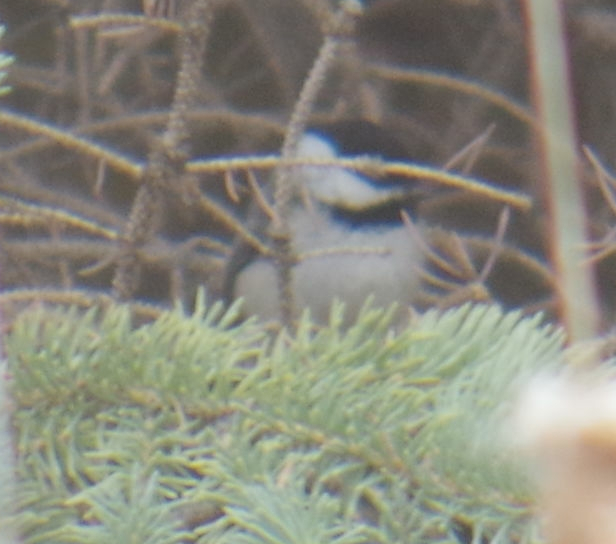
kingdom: Animalia
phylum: Chordata
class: Aves
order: Passeriformes
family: Paridae
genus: Poecile
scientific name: Poecile atricapillus
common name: Black-capped chickadee
